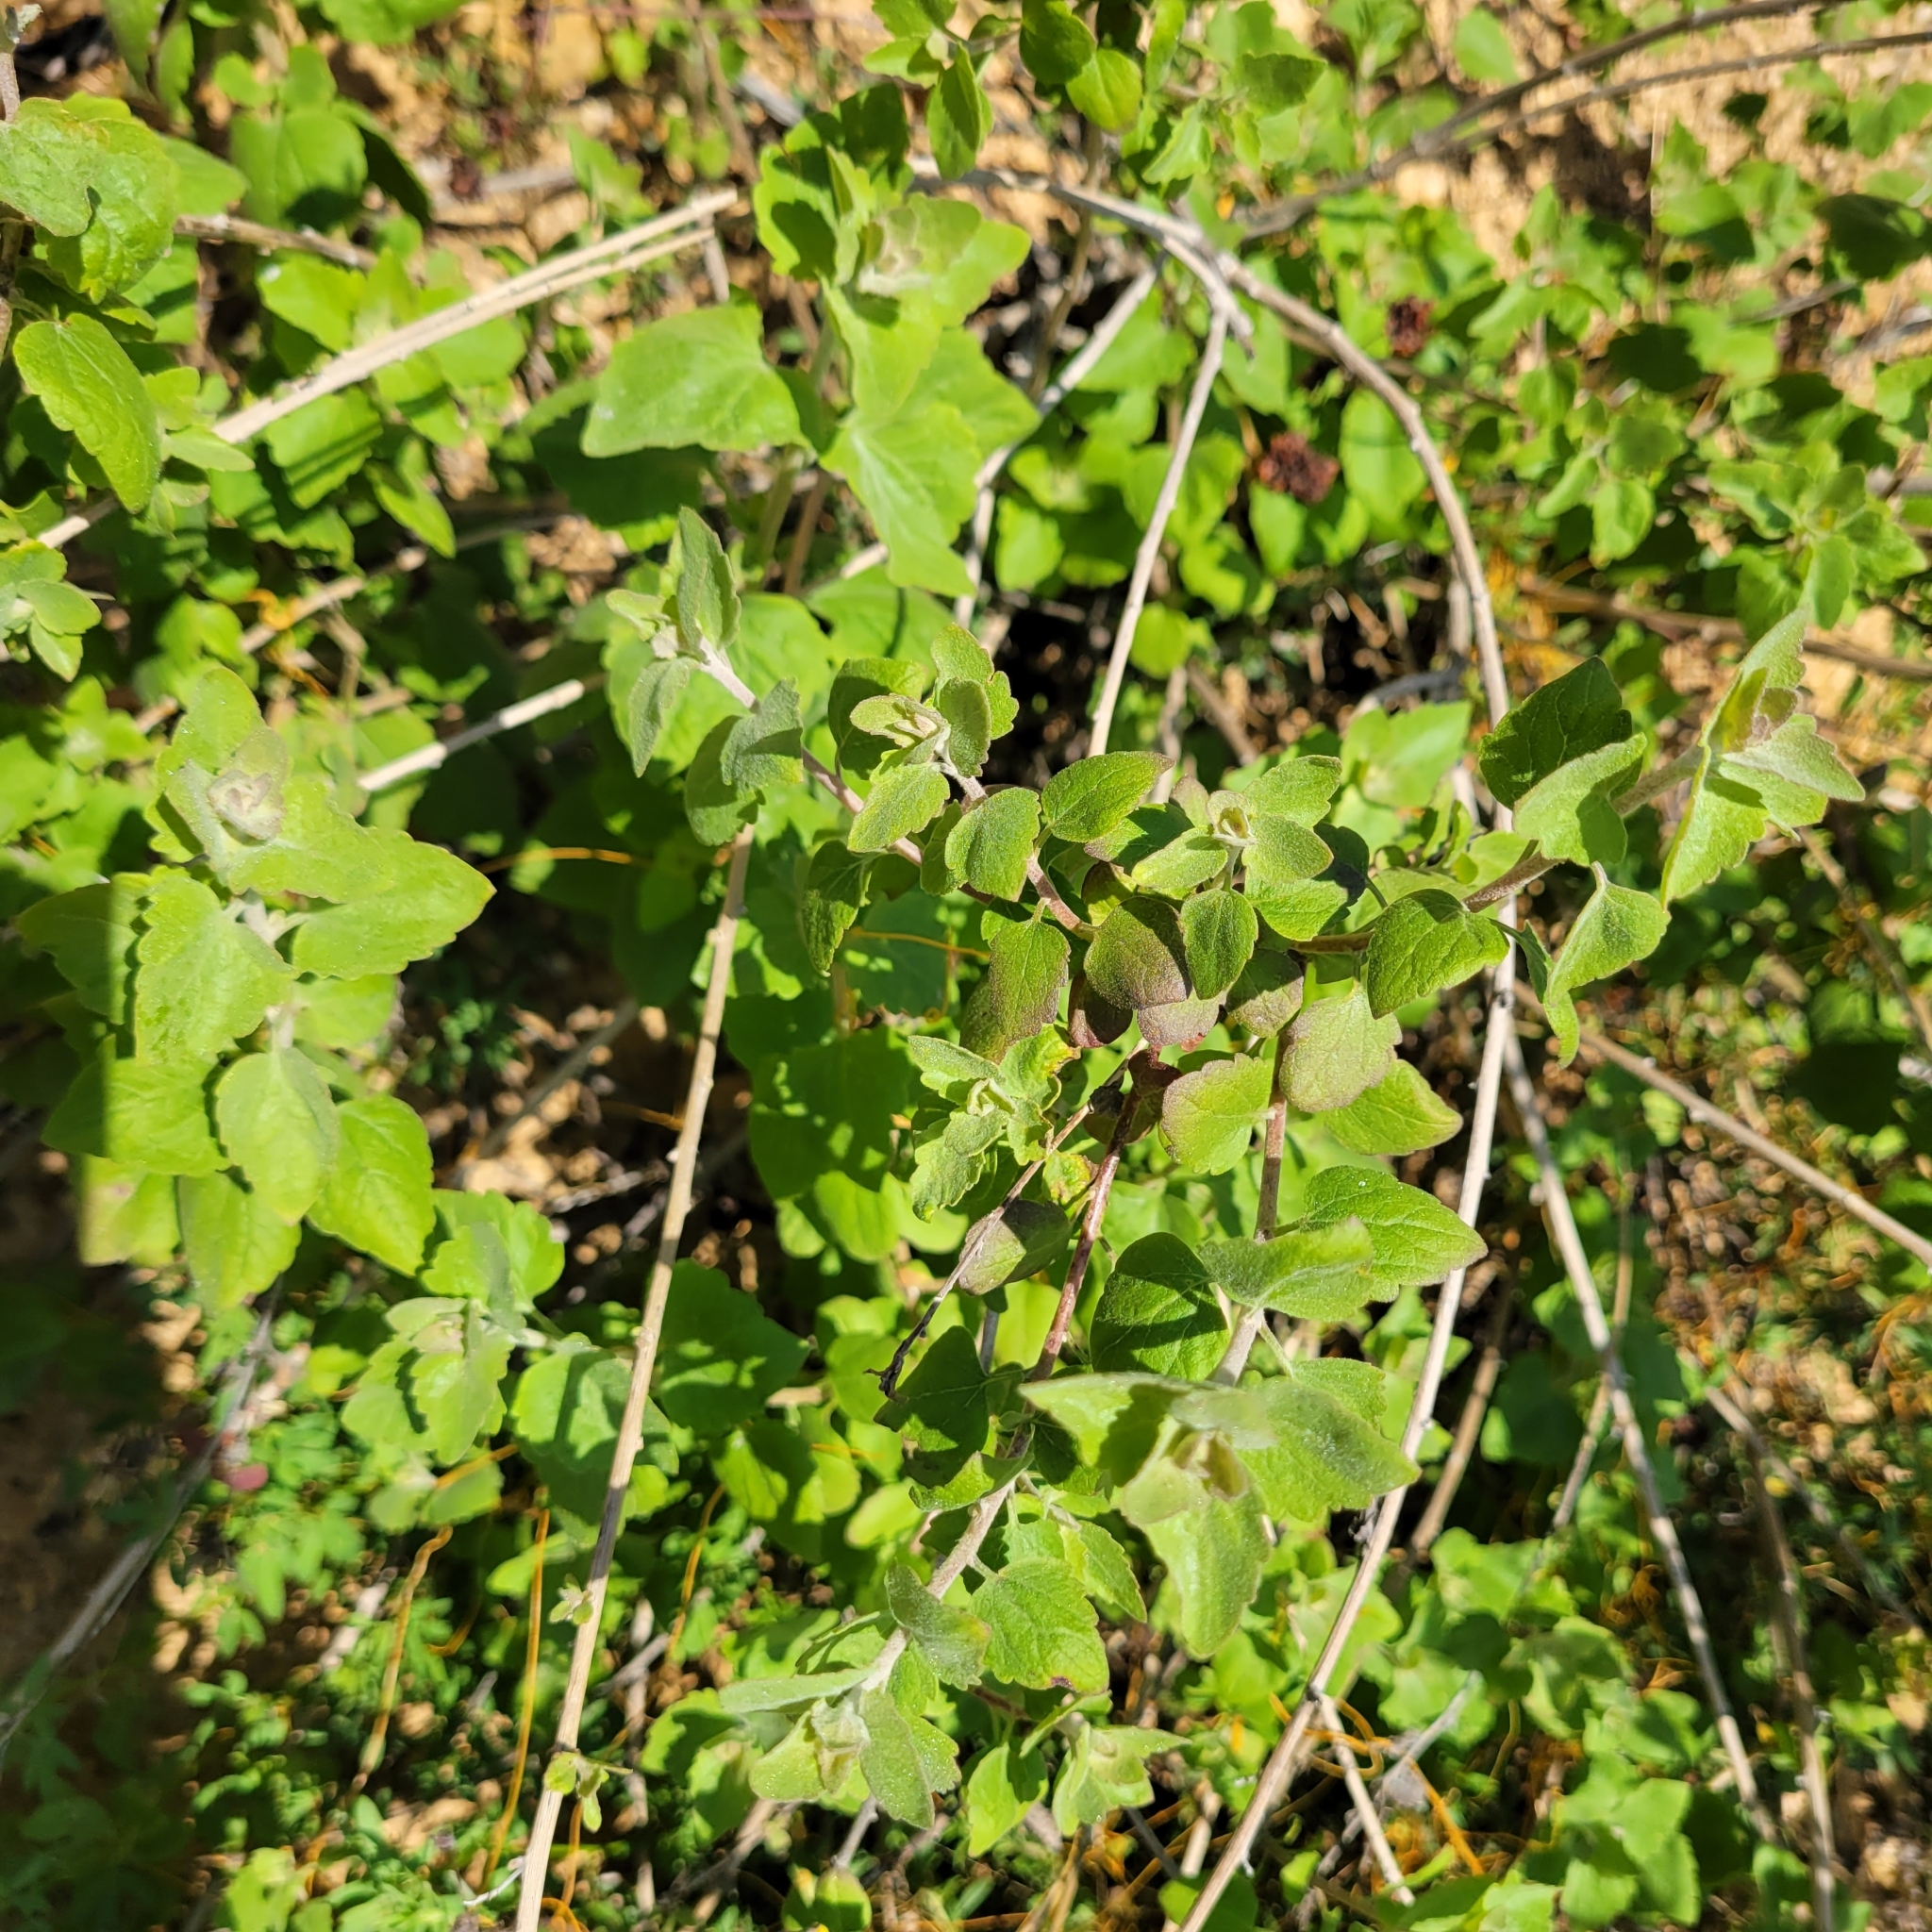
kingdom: Plantae
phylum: Tracheophyta
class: Magnoliopsida
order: Asterales
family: Asteraceae
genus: Brickellia
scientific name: Brickellia californica
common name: California brickellbush
